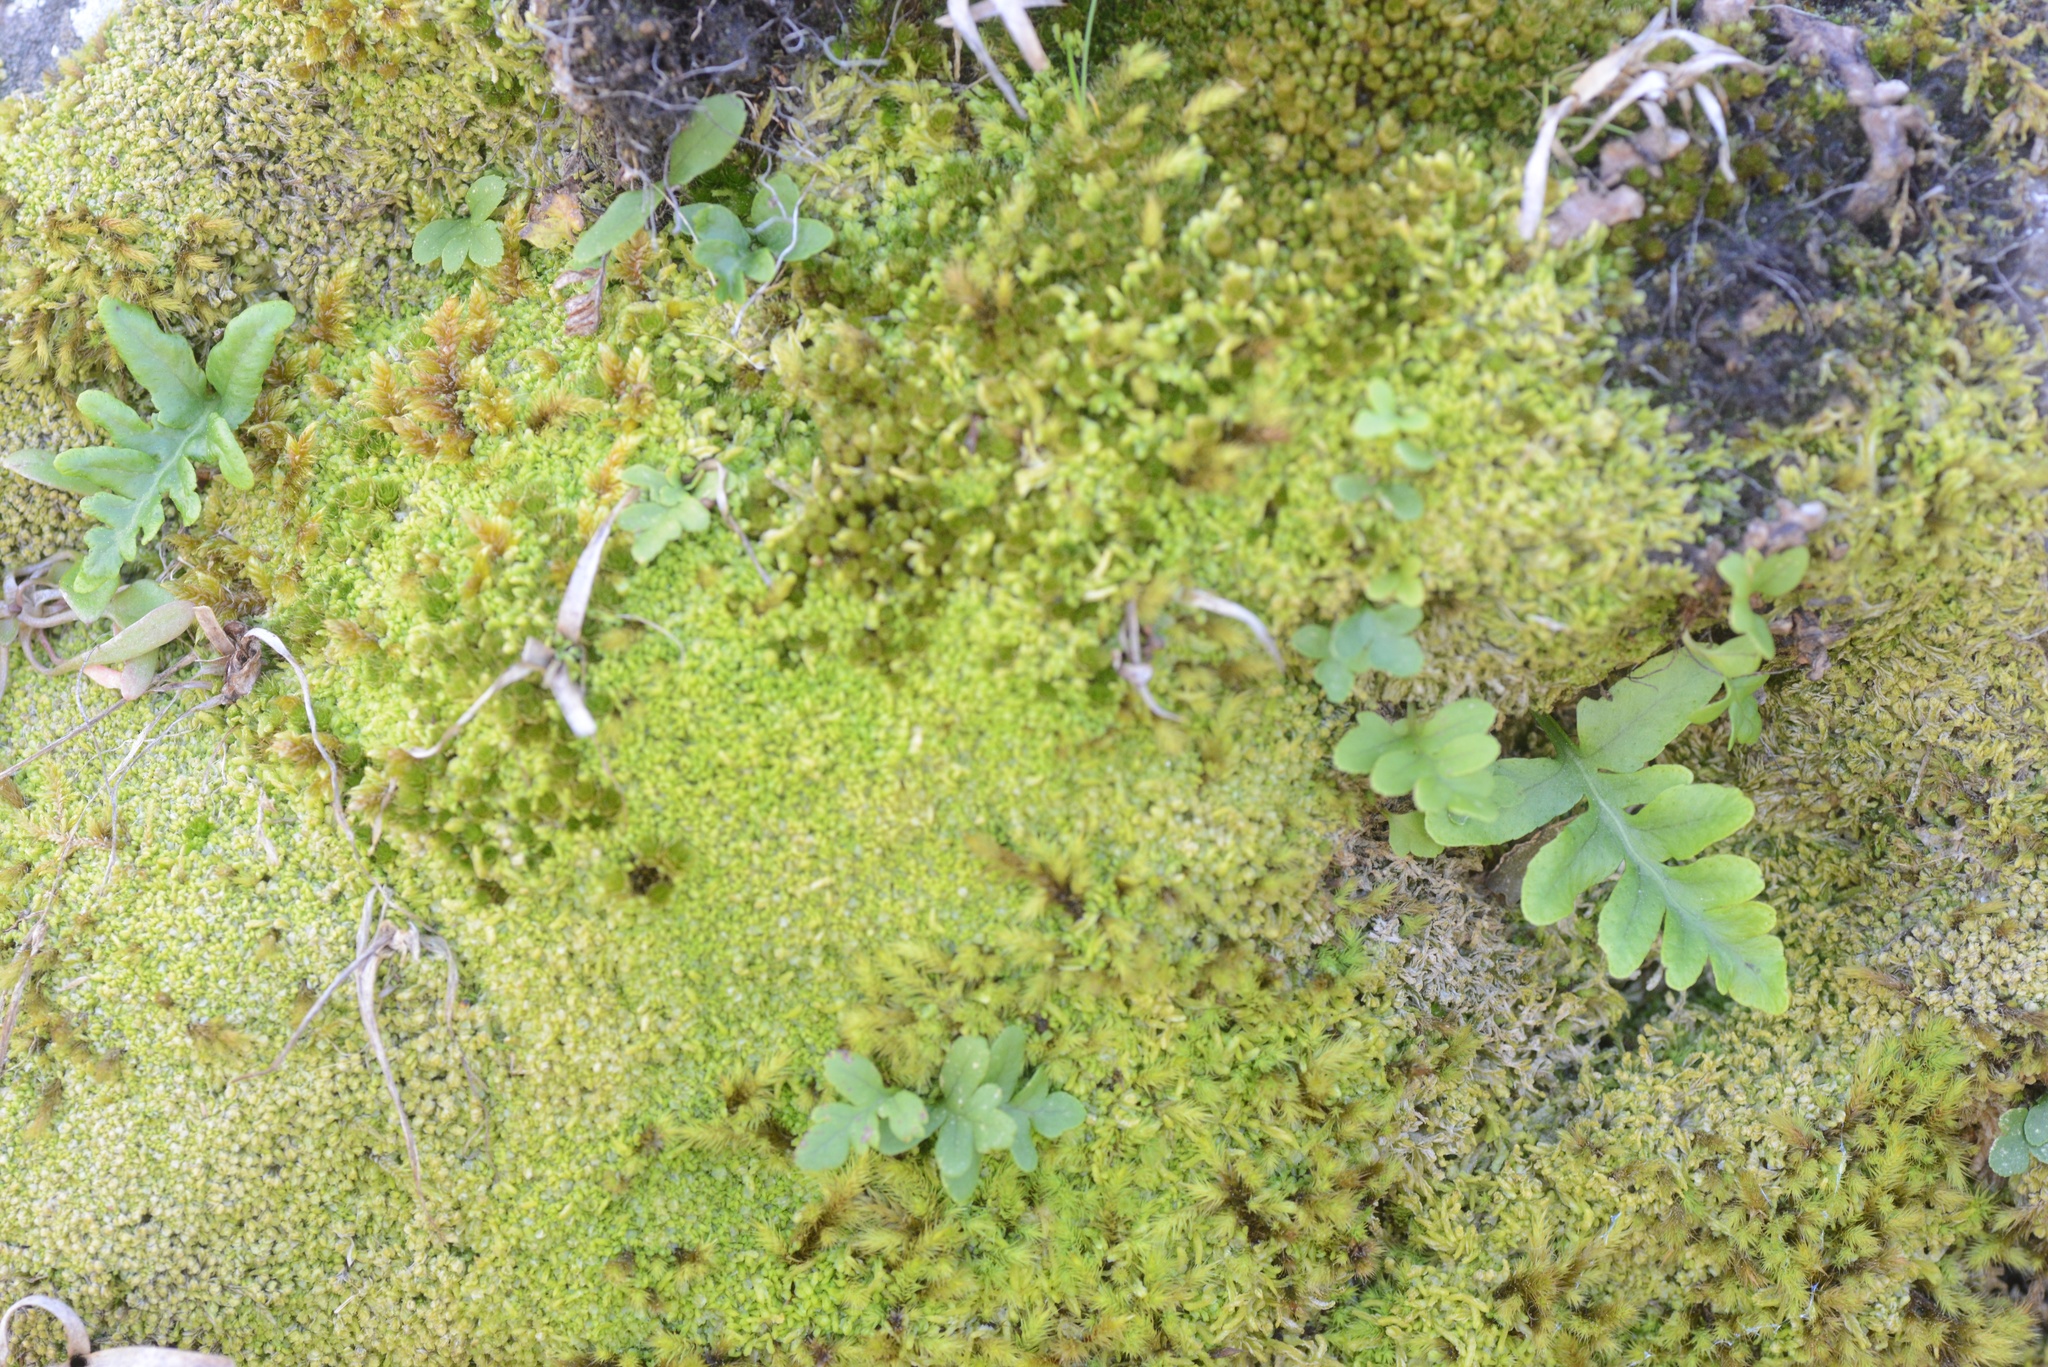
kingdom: Plantae
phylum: Tracheophyta
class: Polypodiopsida
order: Polypodiales
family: Polypodiaceae
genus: Polypodium
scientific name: Polypodium vulgare
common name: Common polypody
